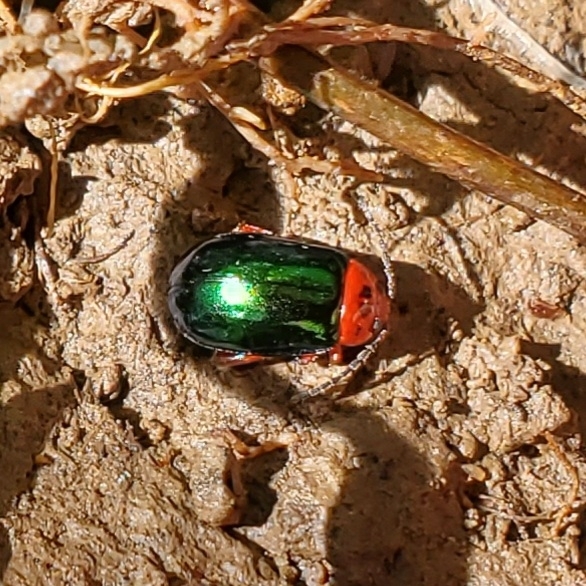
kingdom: Animalia
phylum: Arthropoda
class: Insecta
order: Coleoptera
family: Chrysomelidae
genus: Kuschelina
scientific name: Kuschelina gibbitarsa
